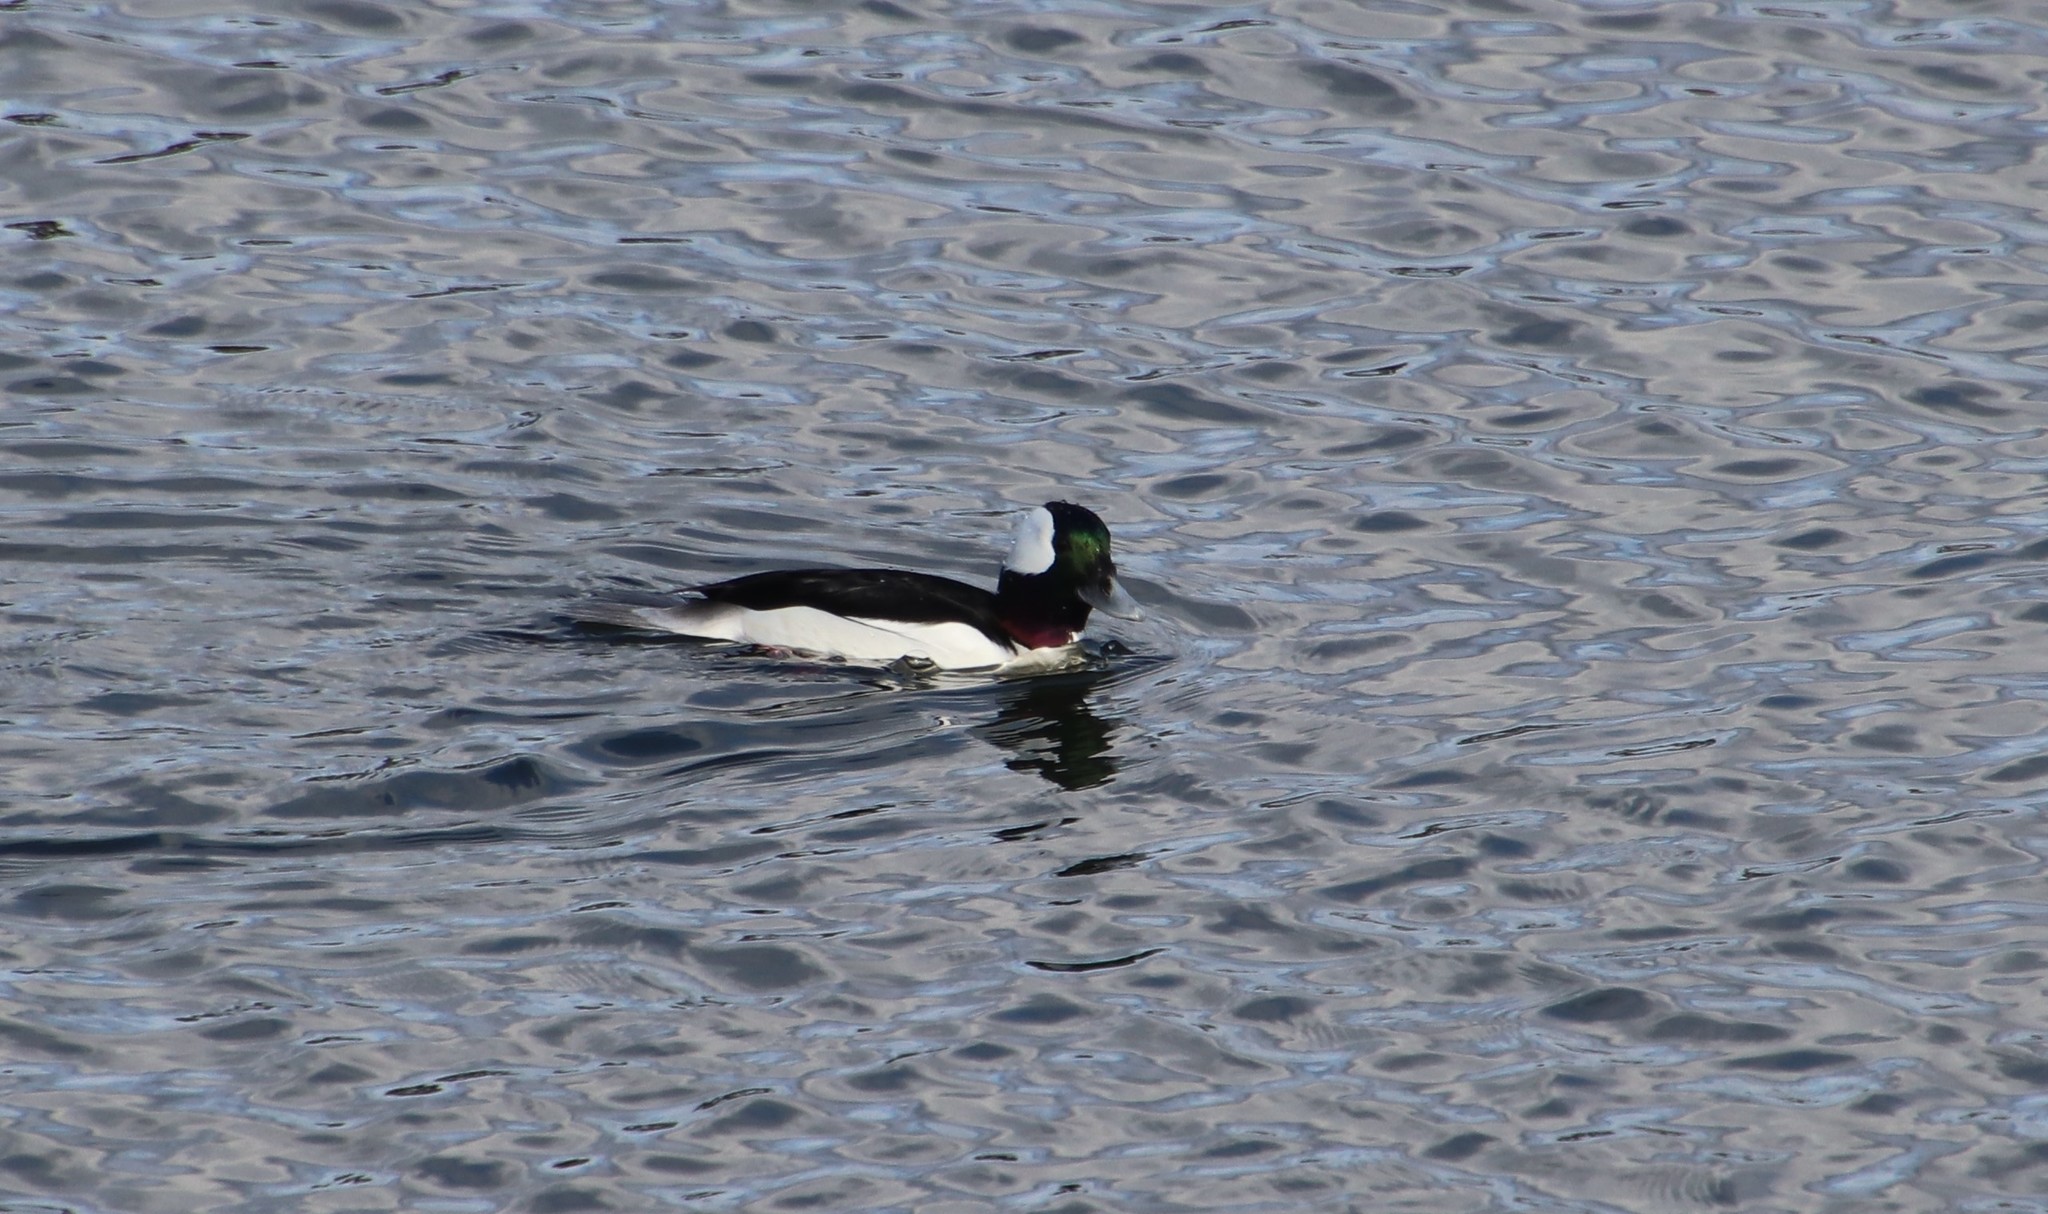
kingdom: Animalia
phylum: Chordata
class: Aves
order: Anseriformes
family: Anatidae
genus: Bucephala
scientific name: Bucephala albeola
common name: Bufflehead
